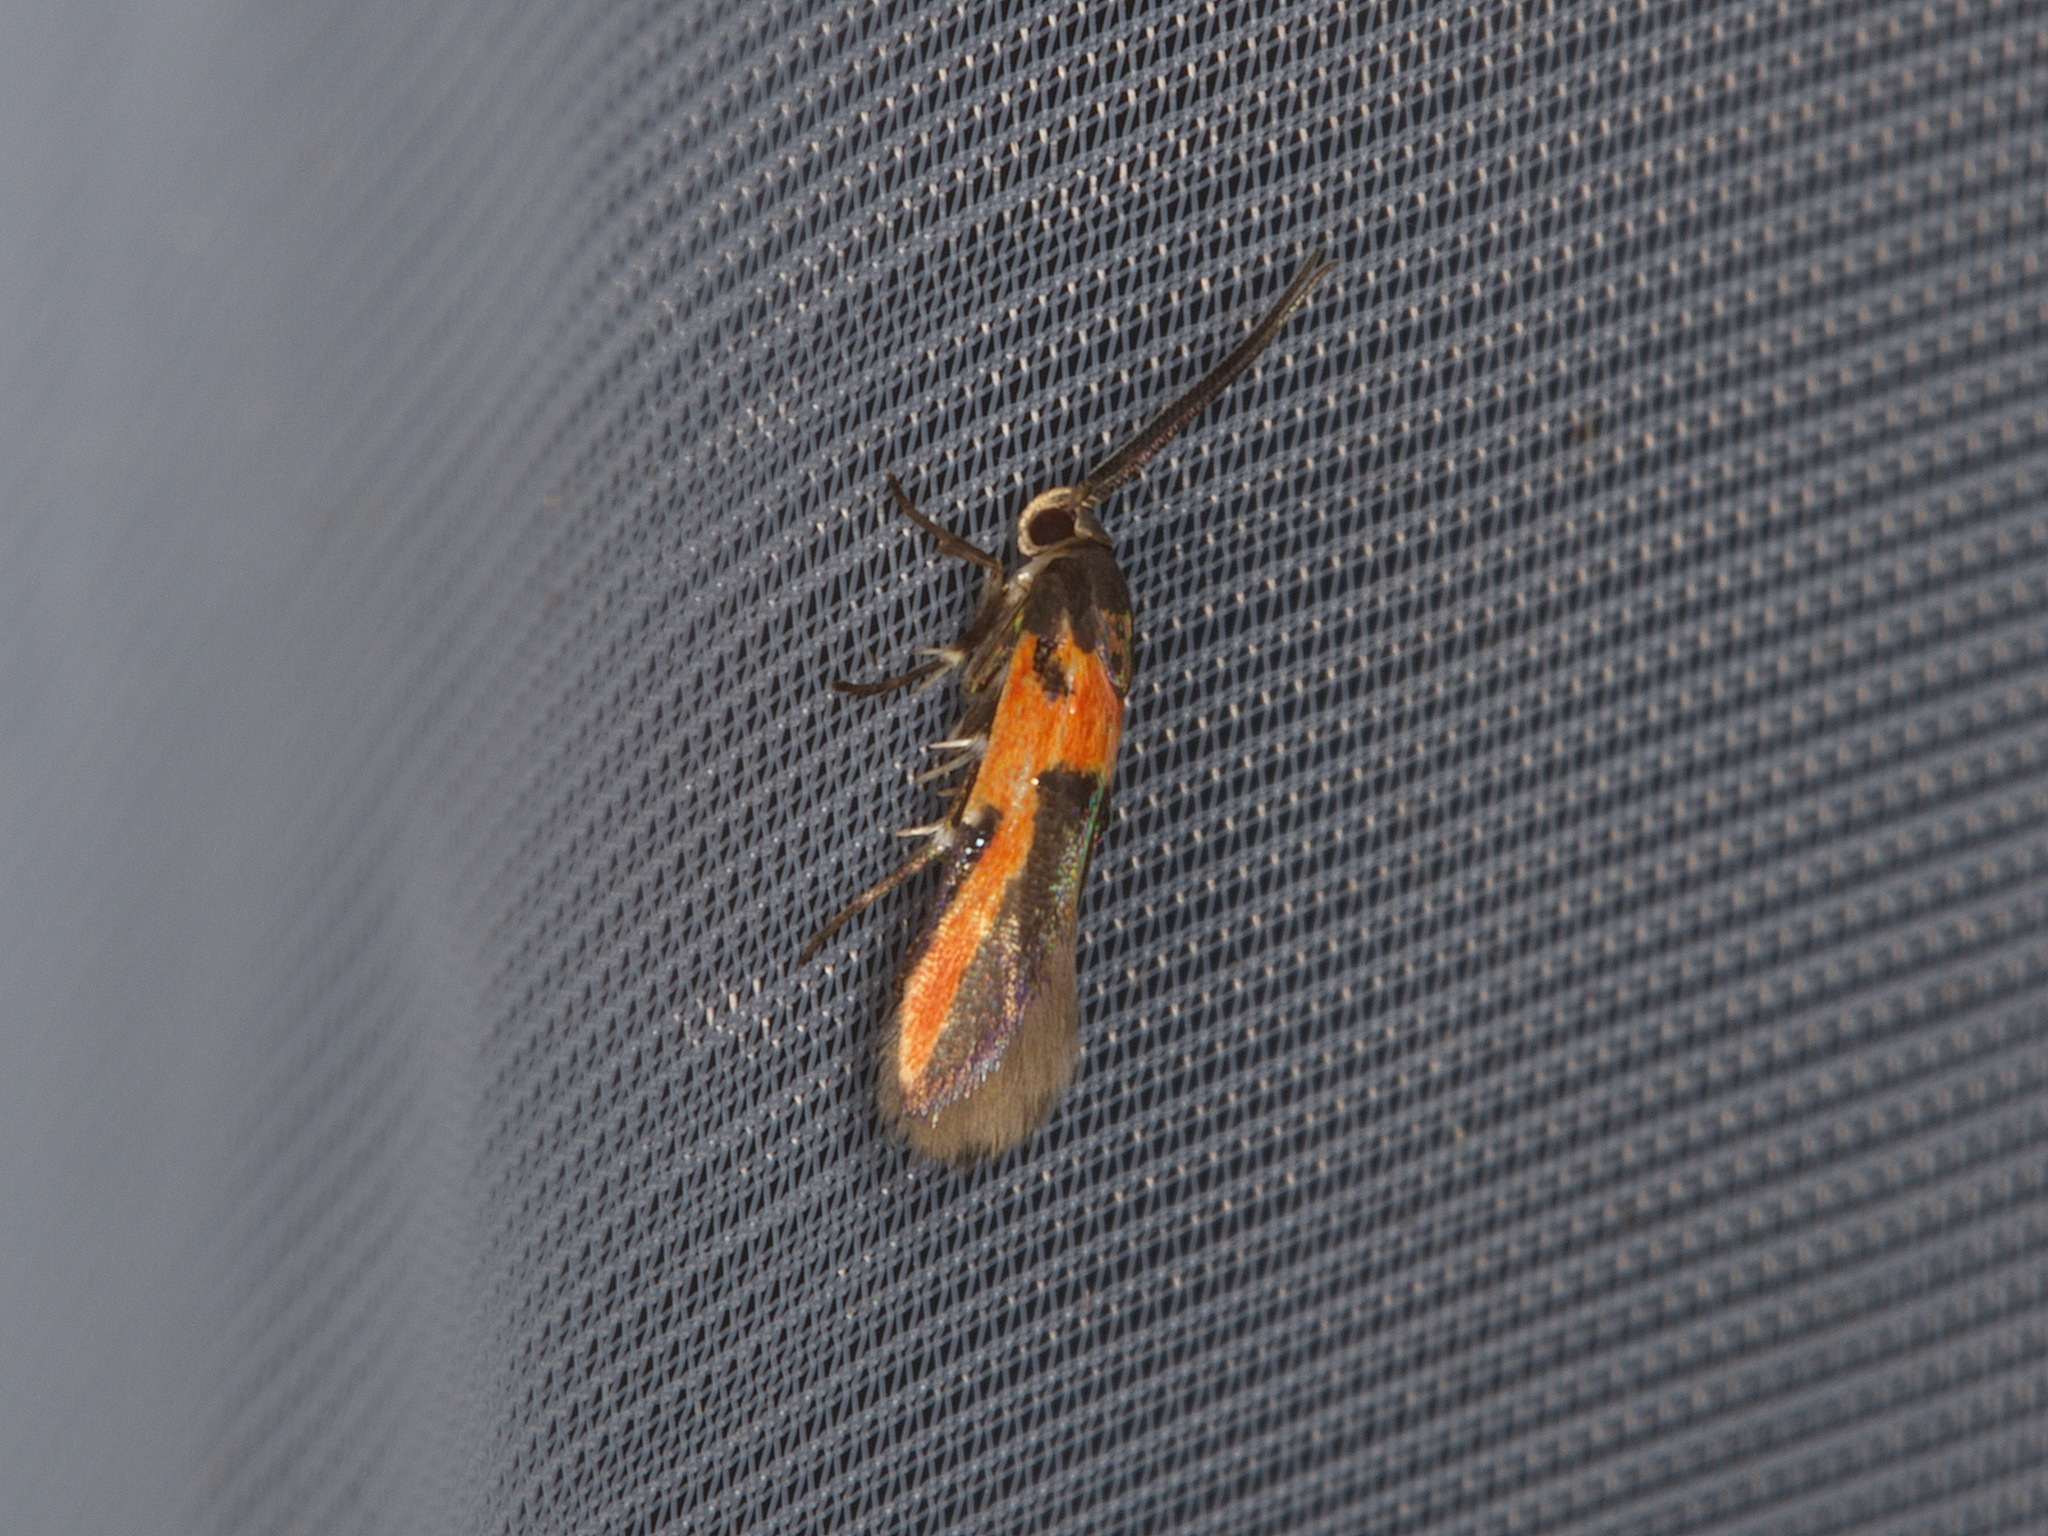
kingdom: Animalia
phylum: Arthropoda
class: Insecta
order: Lepidoptera
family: Cosmopterigidae
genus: Euclemensia
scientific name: Euclemensia bassettella
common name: Kermes scale moth
